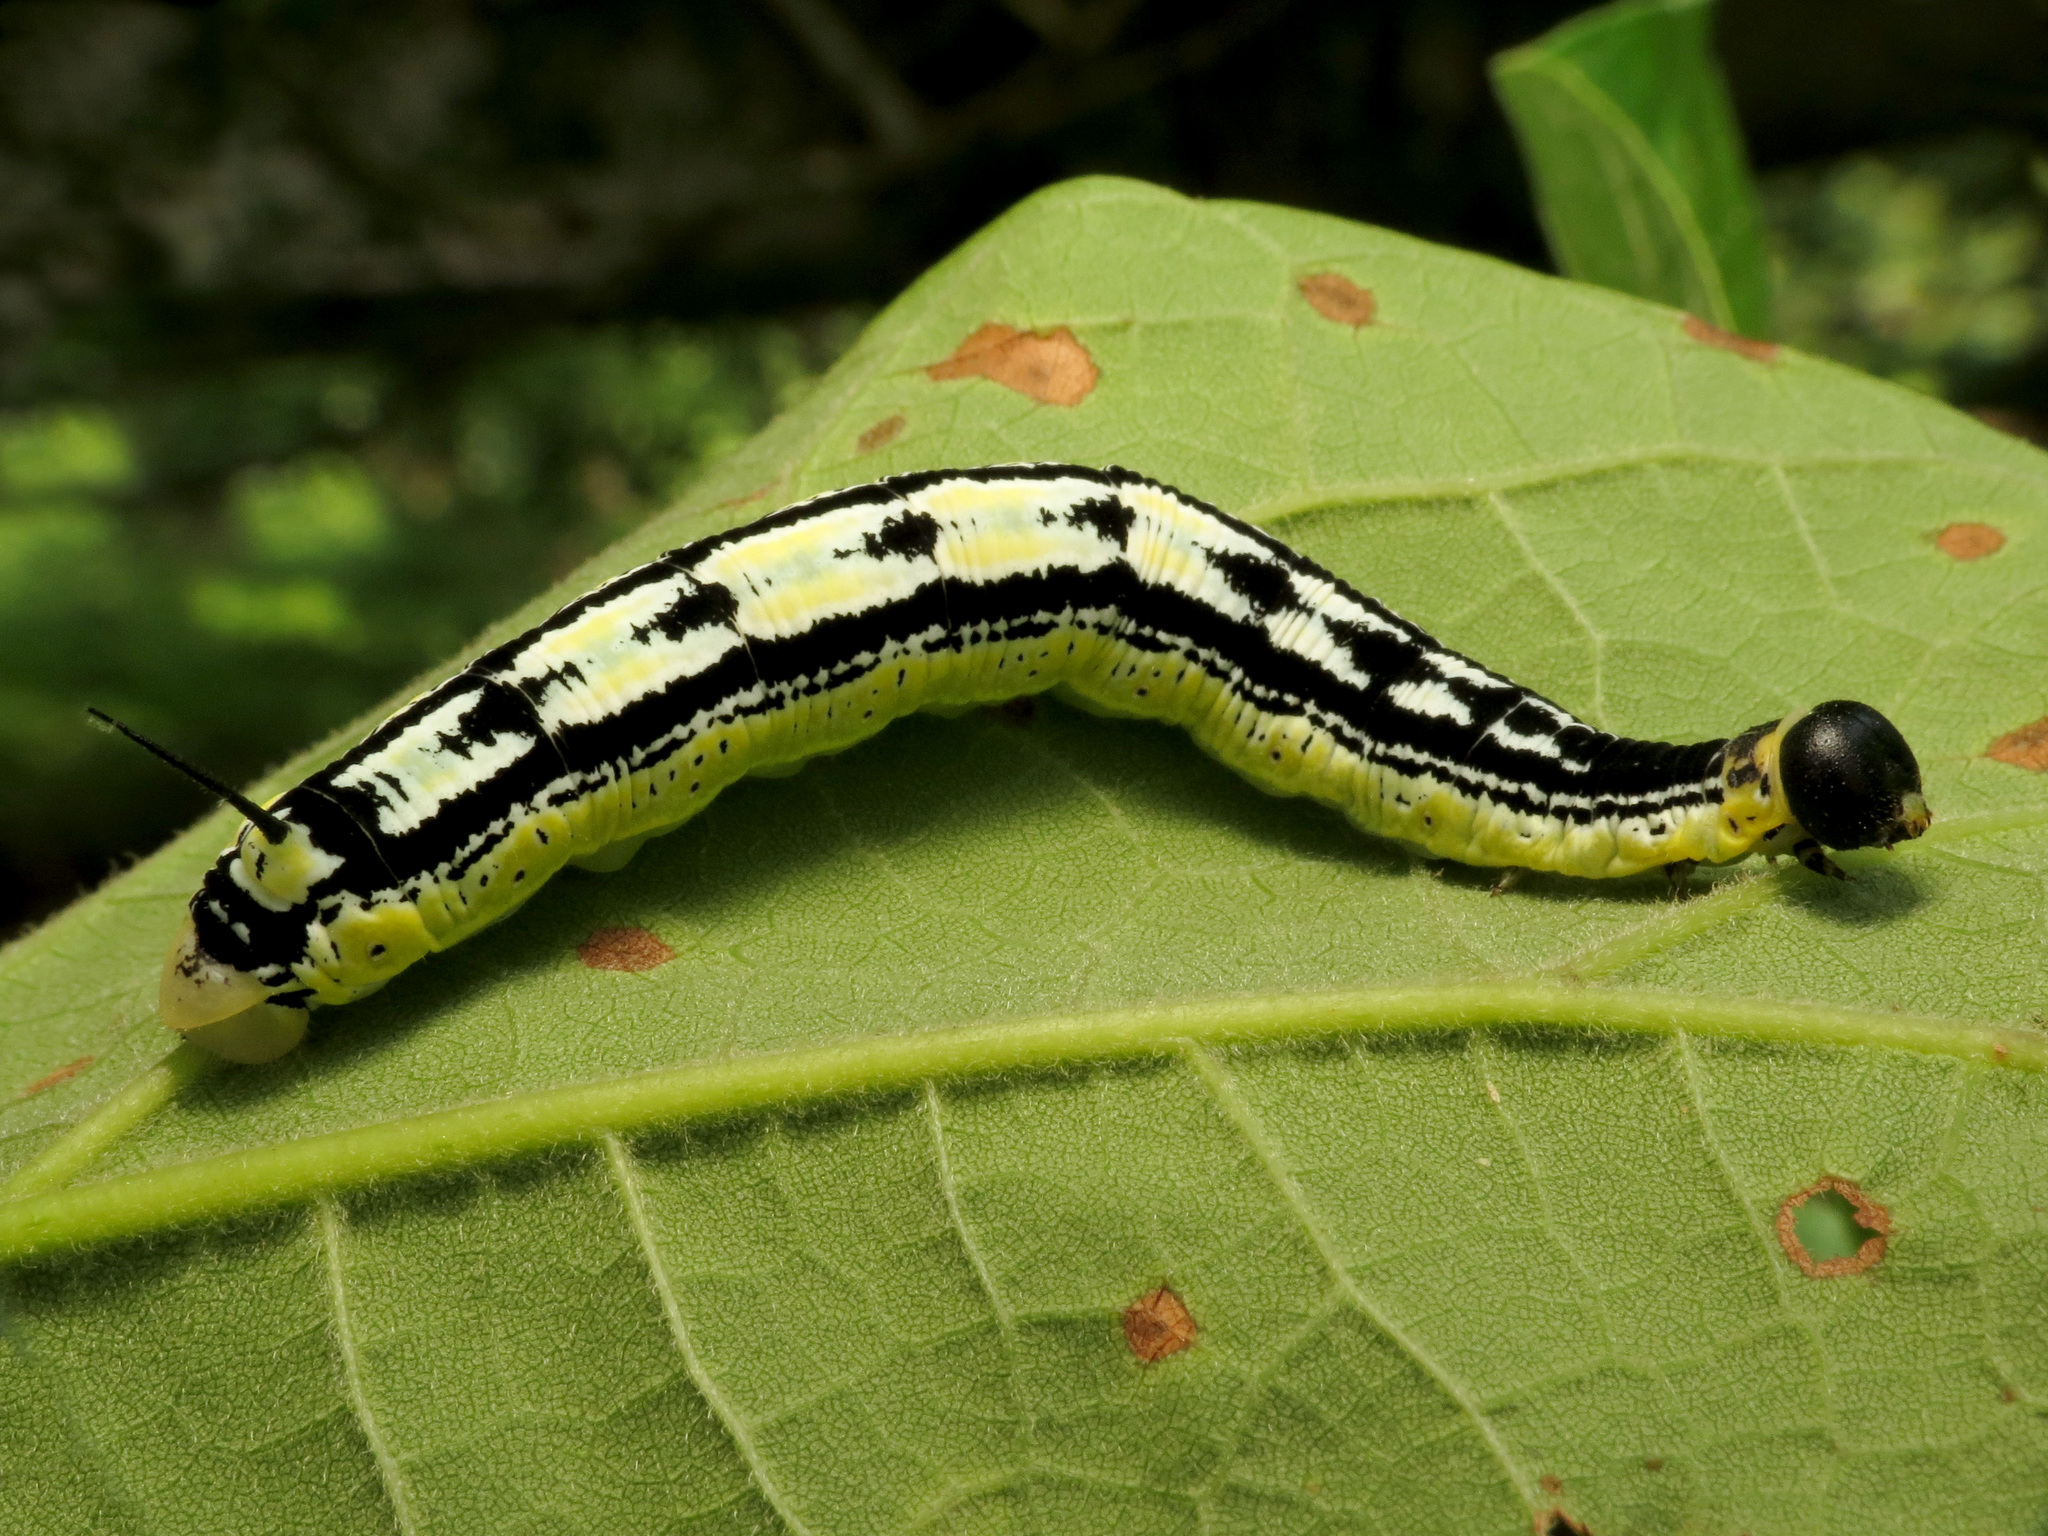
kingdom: Animalia
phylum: Arthropoda
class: Insecta
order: Lepidoptera
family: Sphingidae
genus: Ceratomia
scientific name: Ceratomia catalpae
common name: Catalpa hornworm
